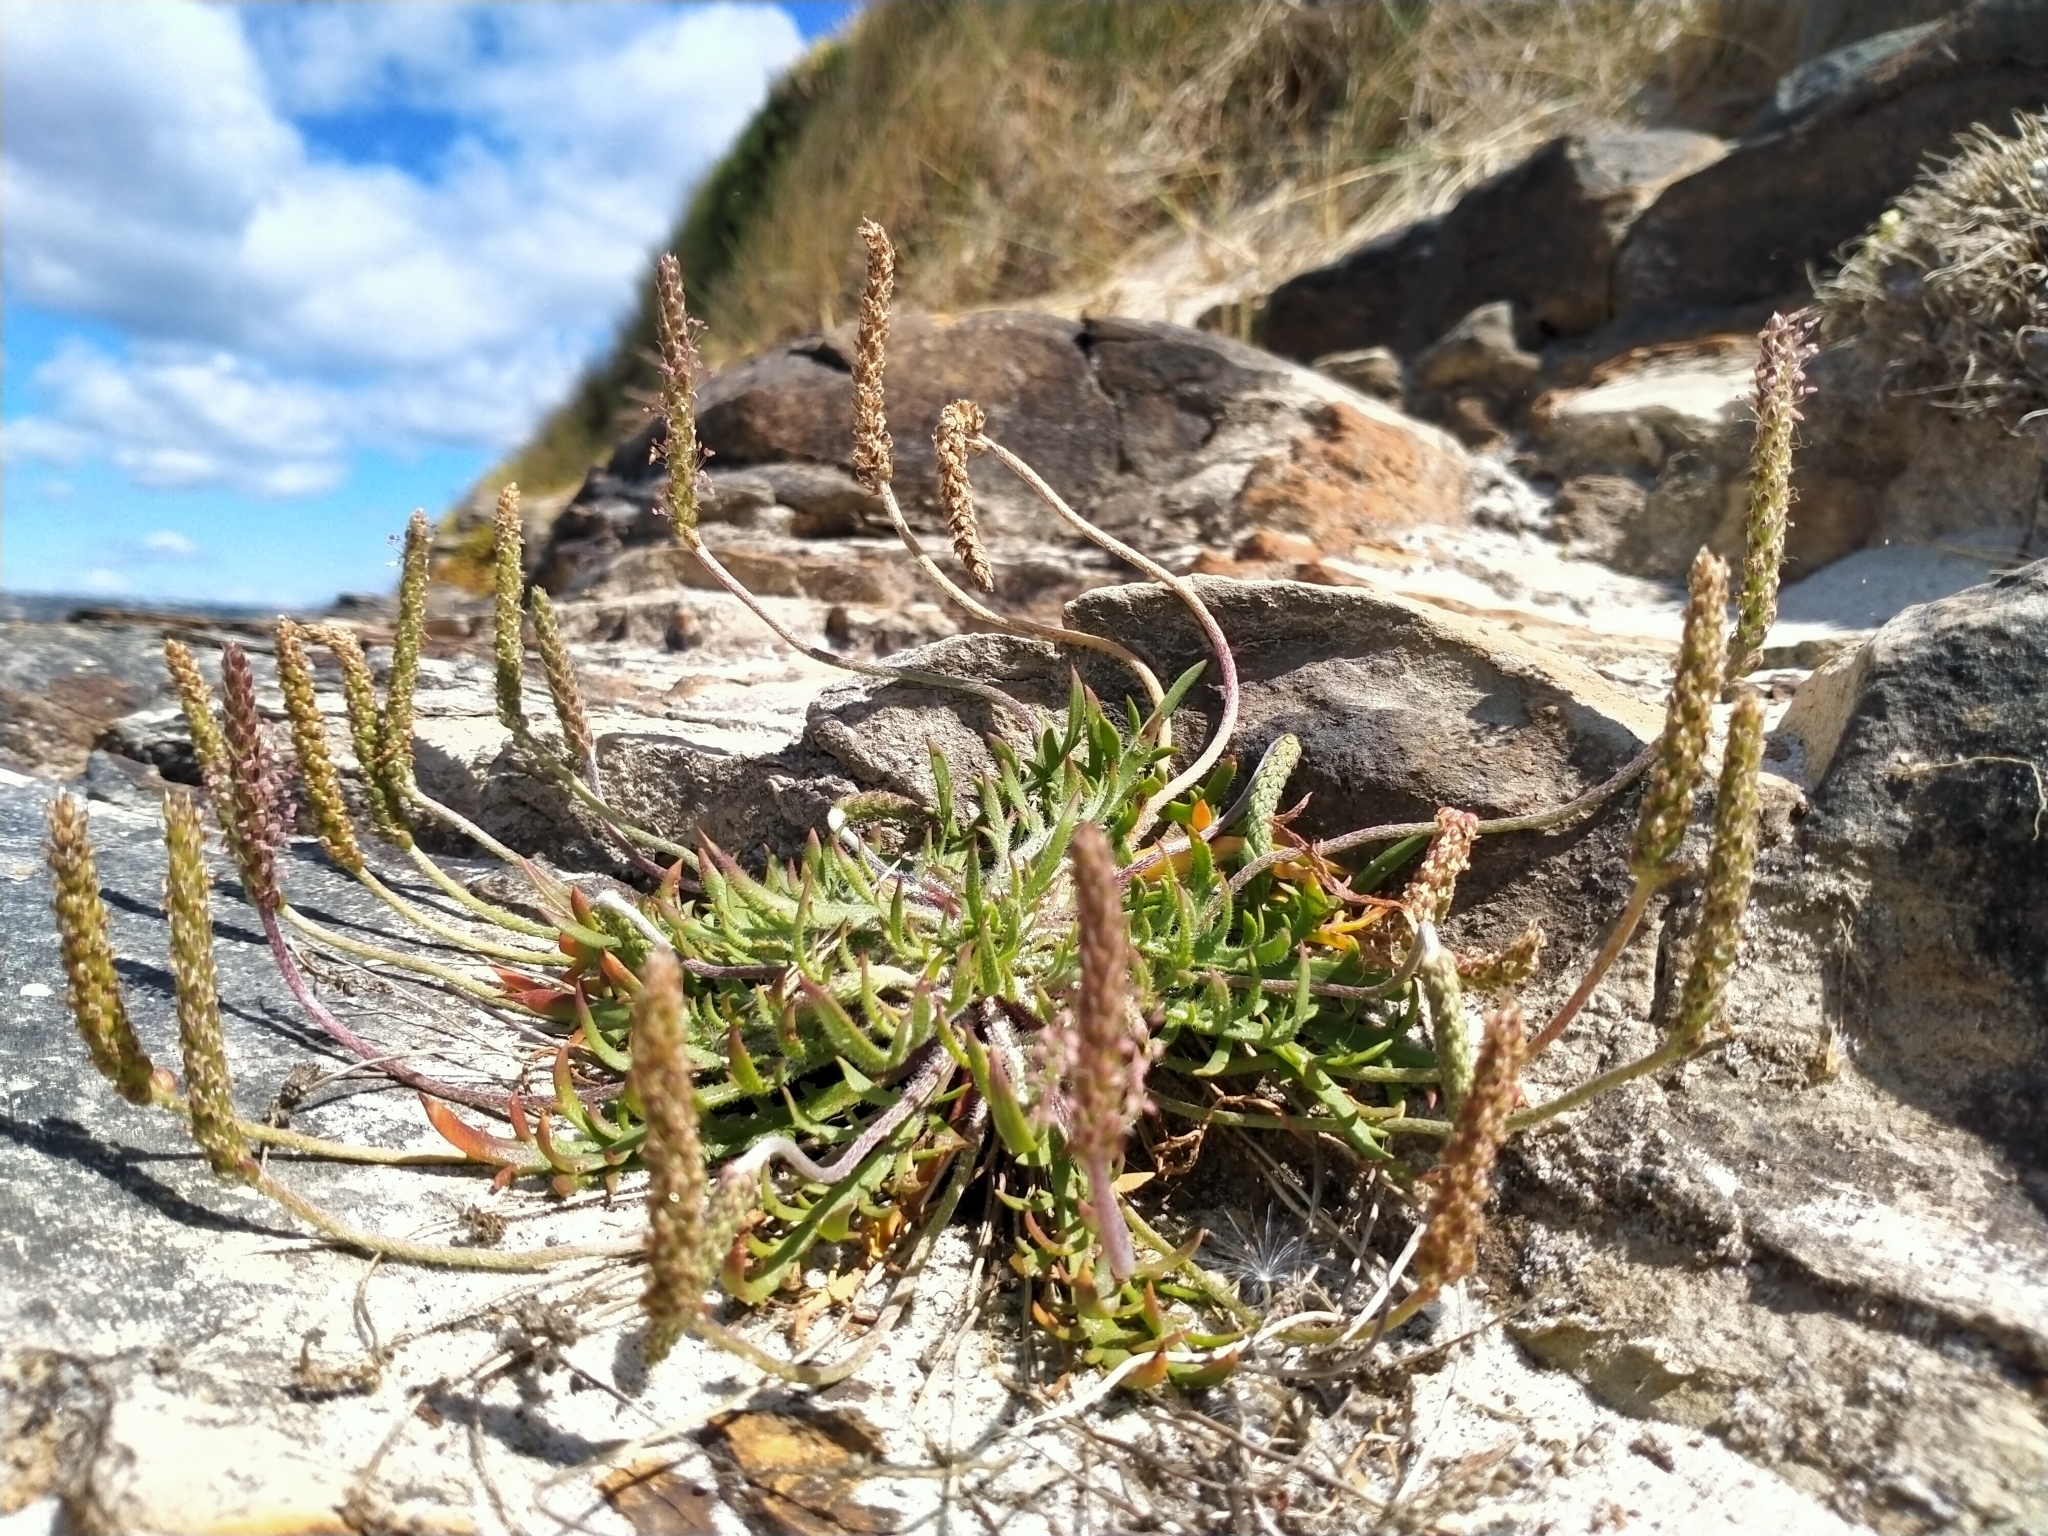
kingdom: Plantae
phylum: Tracheophyta
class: Magnoliopsida
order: Lamiales
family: Plantaginaceae
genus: Plantago
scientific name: Plantago coronopus
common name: Buck's-horn plantain
